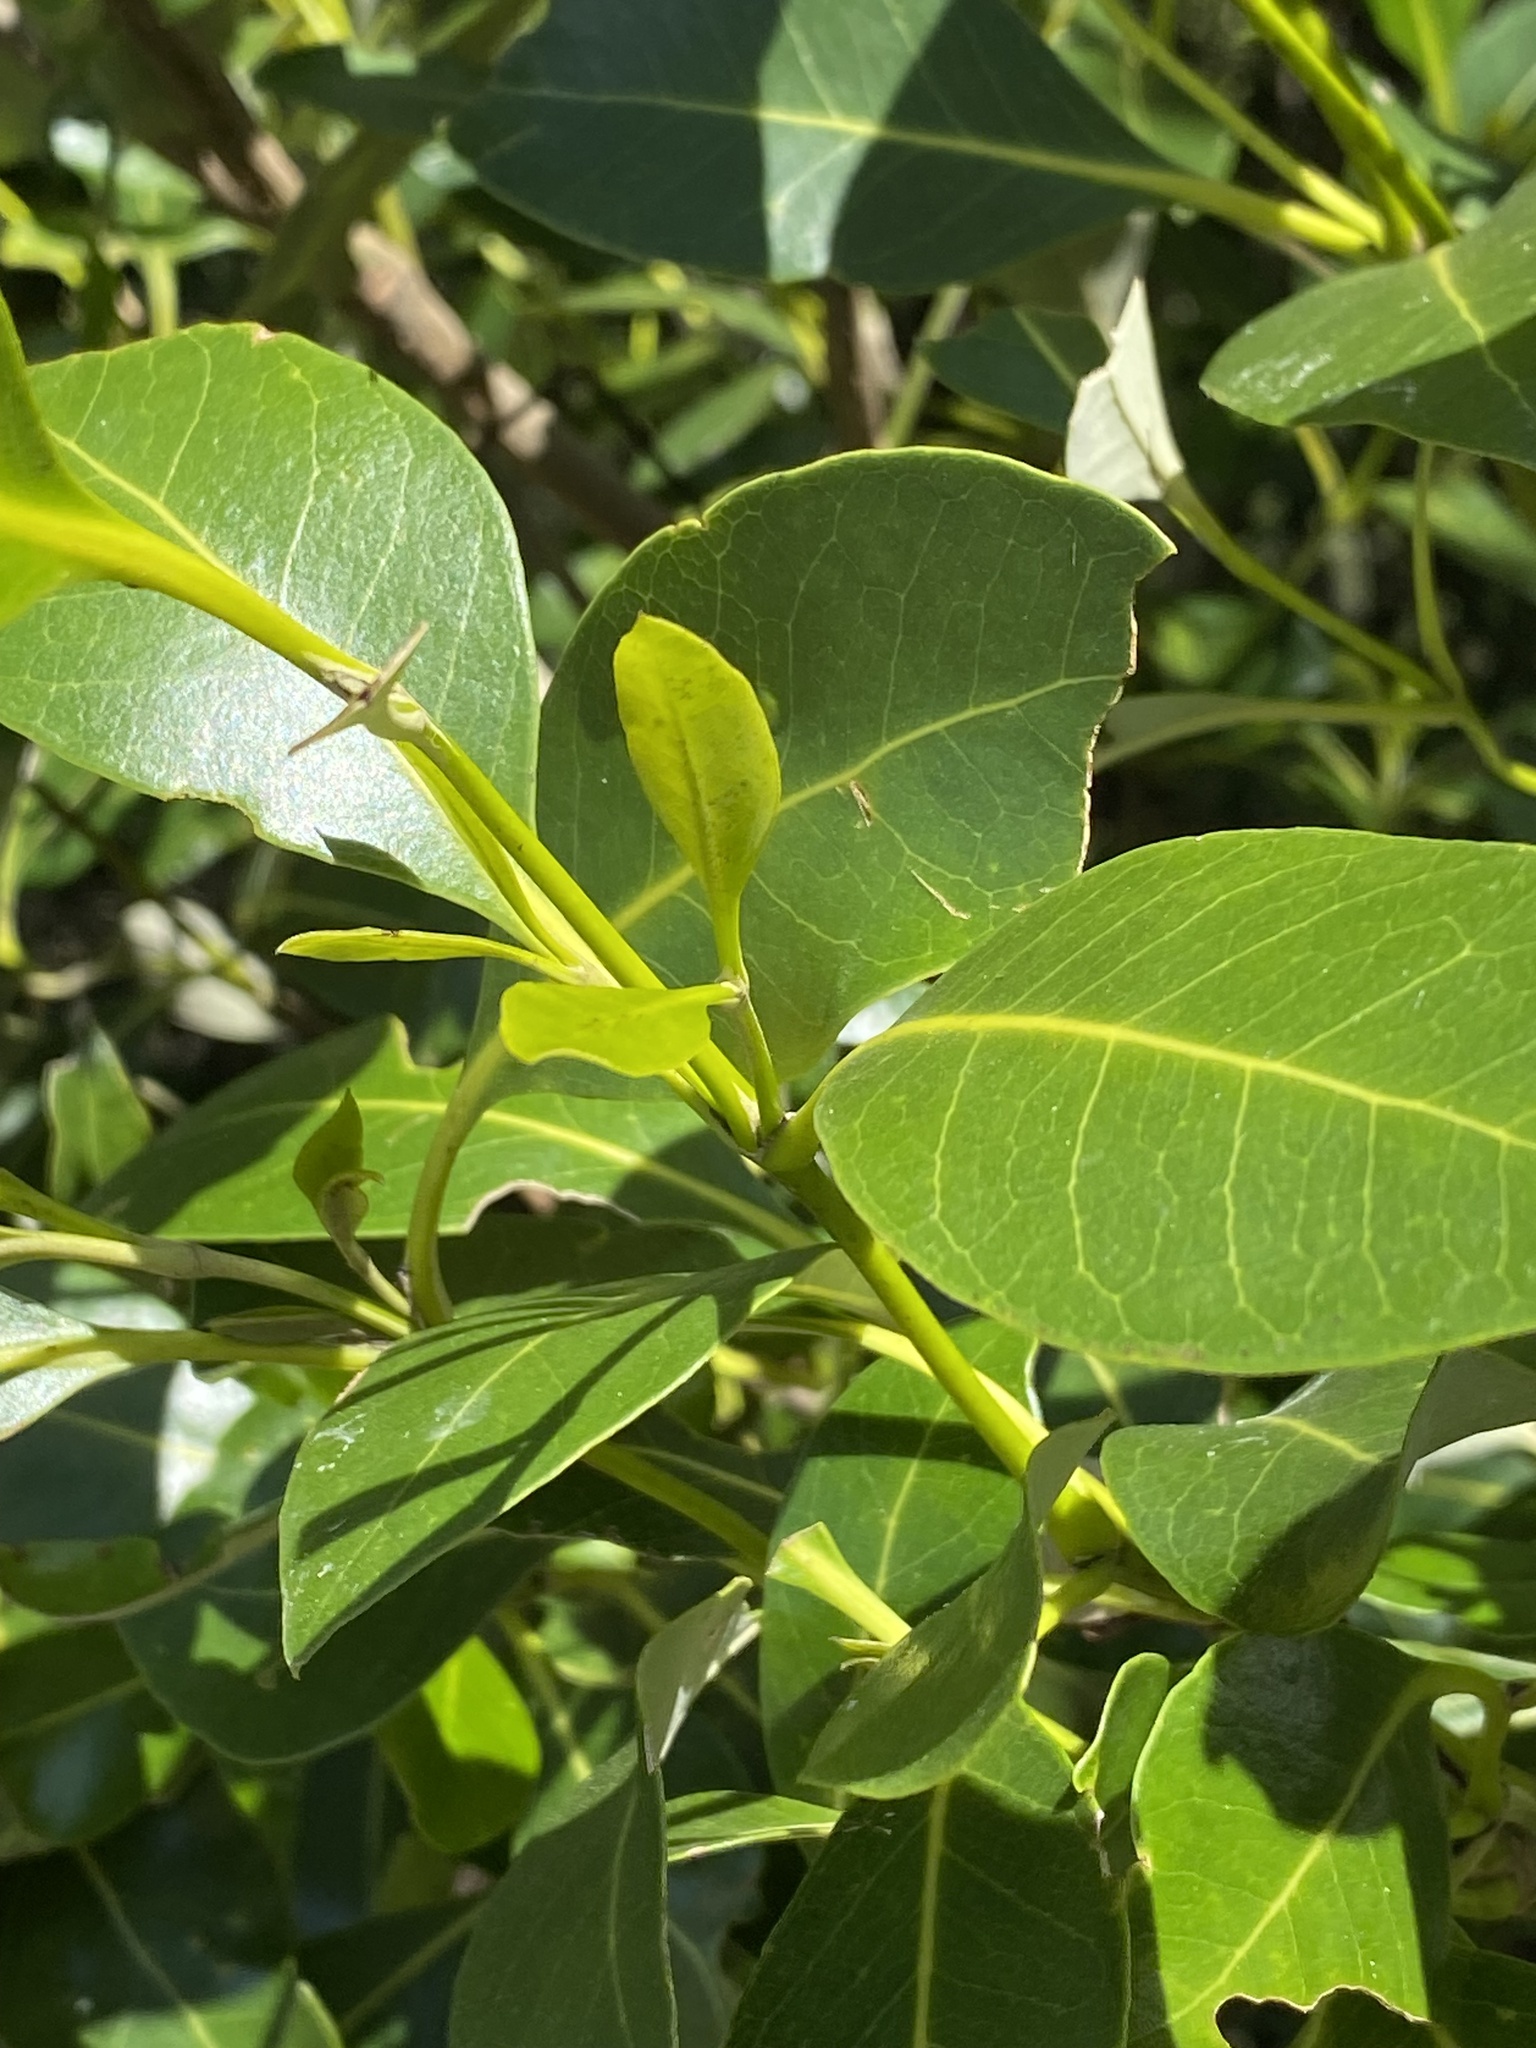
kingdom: Plantae
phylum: Tracheophyta
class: Magnoliopsida
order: Lamiales
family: Acanthaceae
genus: Avicennia
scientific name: Avicennia marina
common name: Gray mangrove
